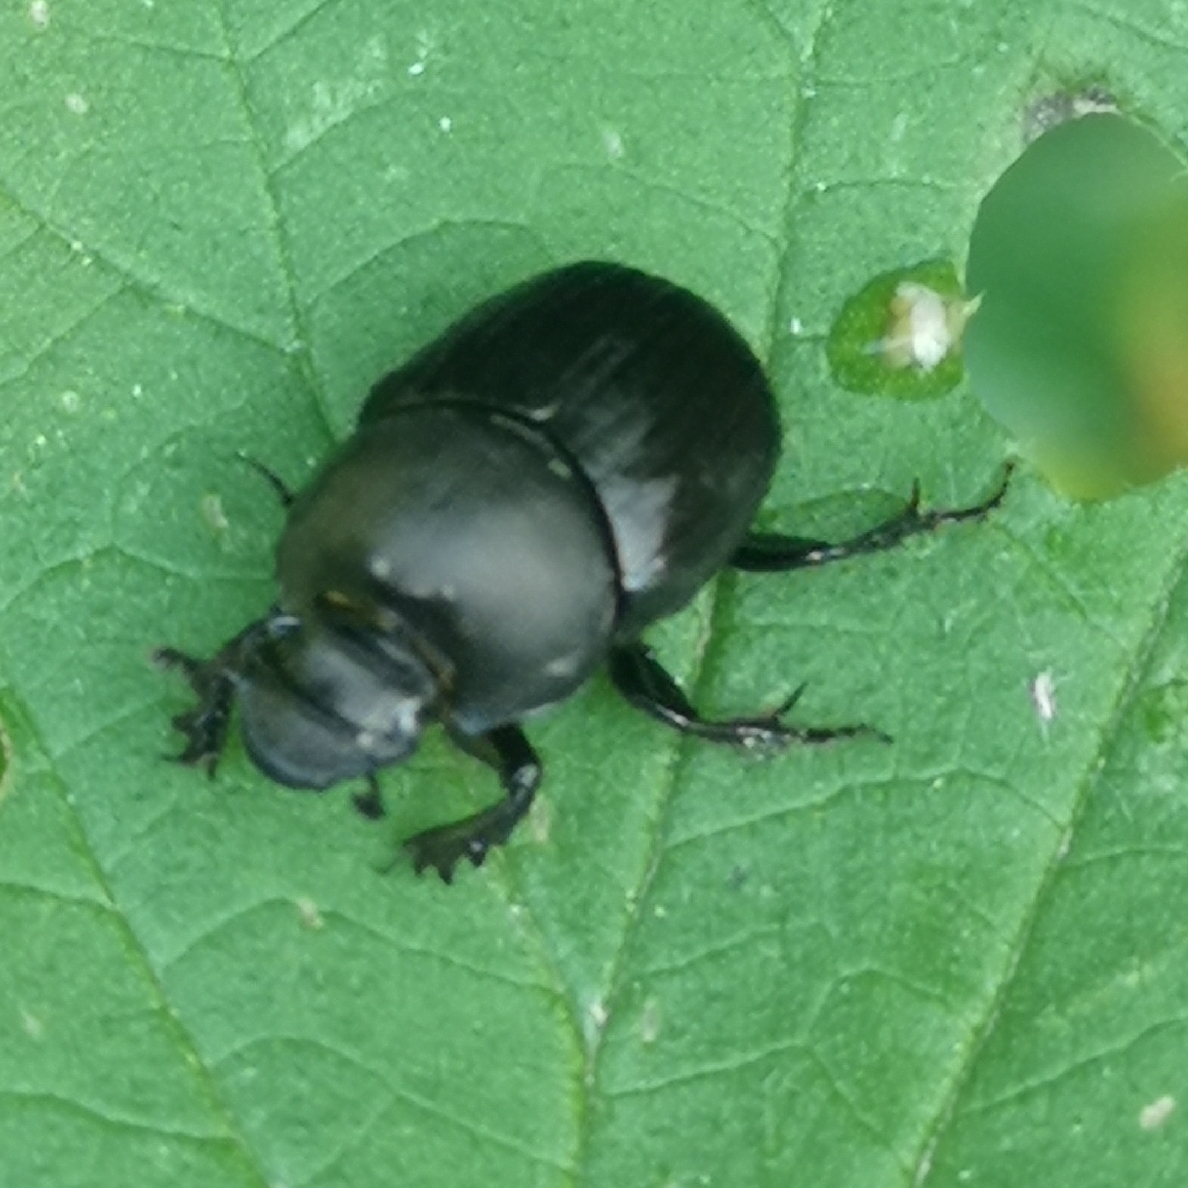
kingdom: Animalia
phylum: Arthropoda
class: Insecta
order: Coleoptera
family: Scarabaeidae
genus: Onthophagus
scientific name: Onthophagus verticicornis
